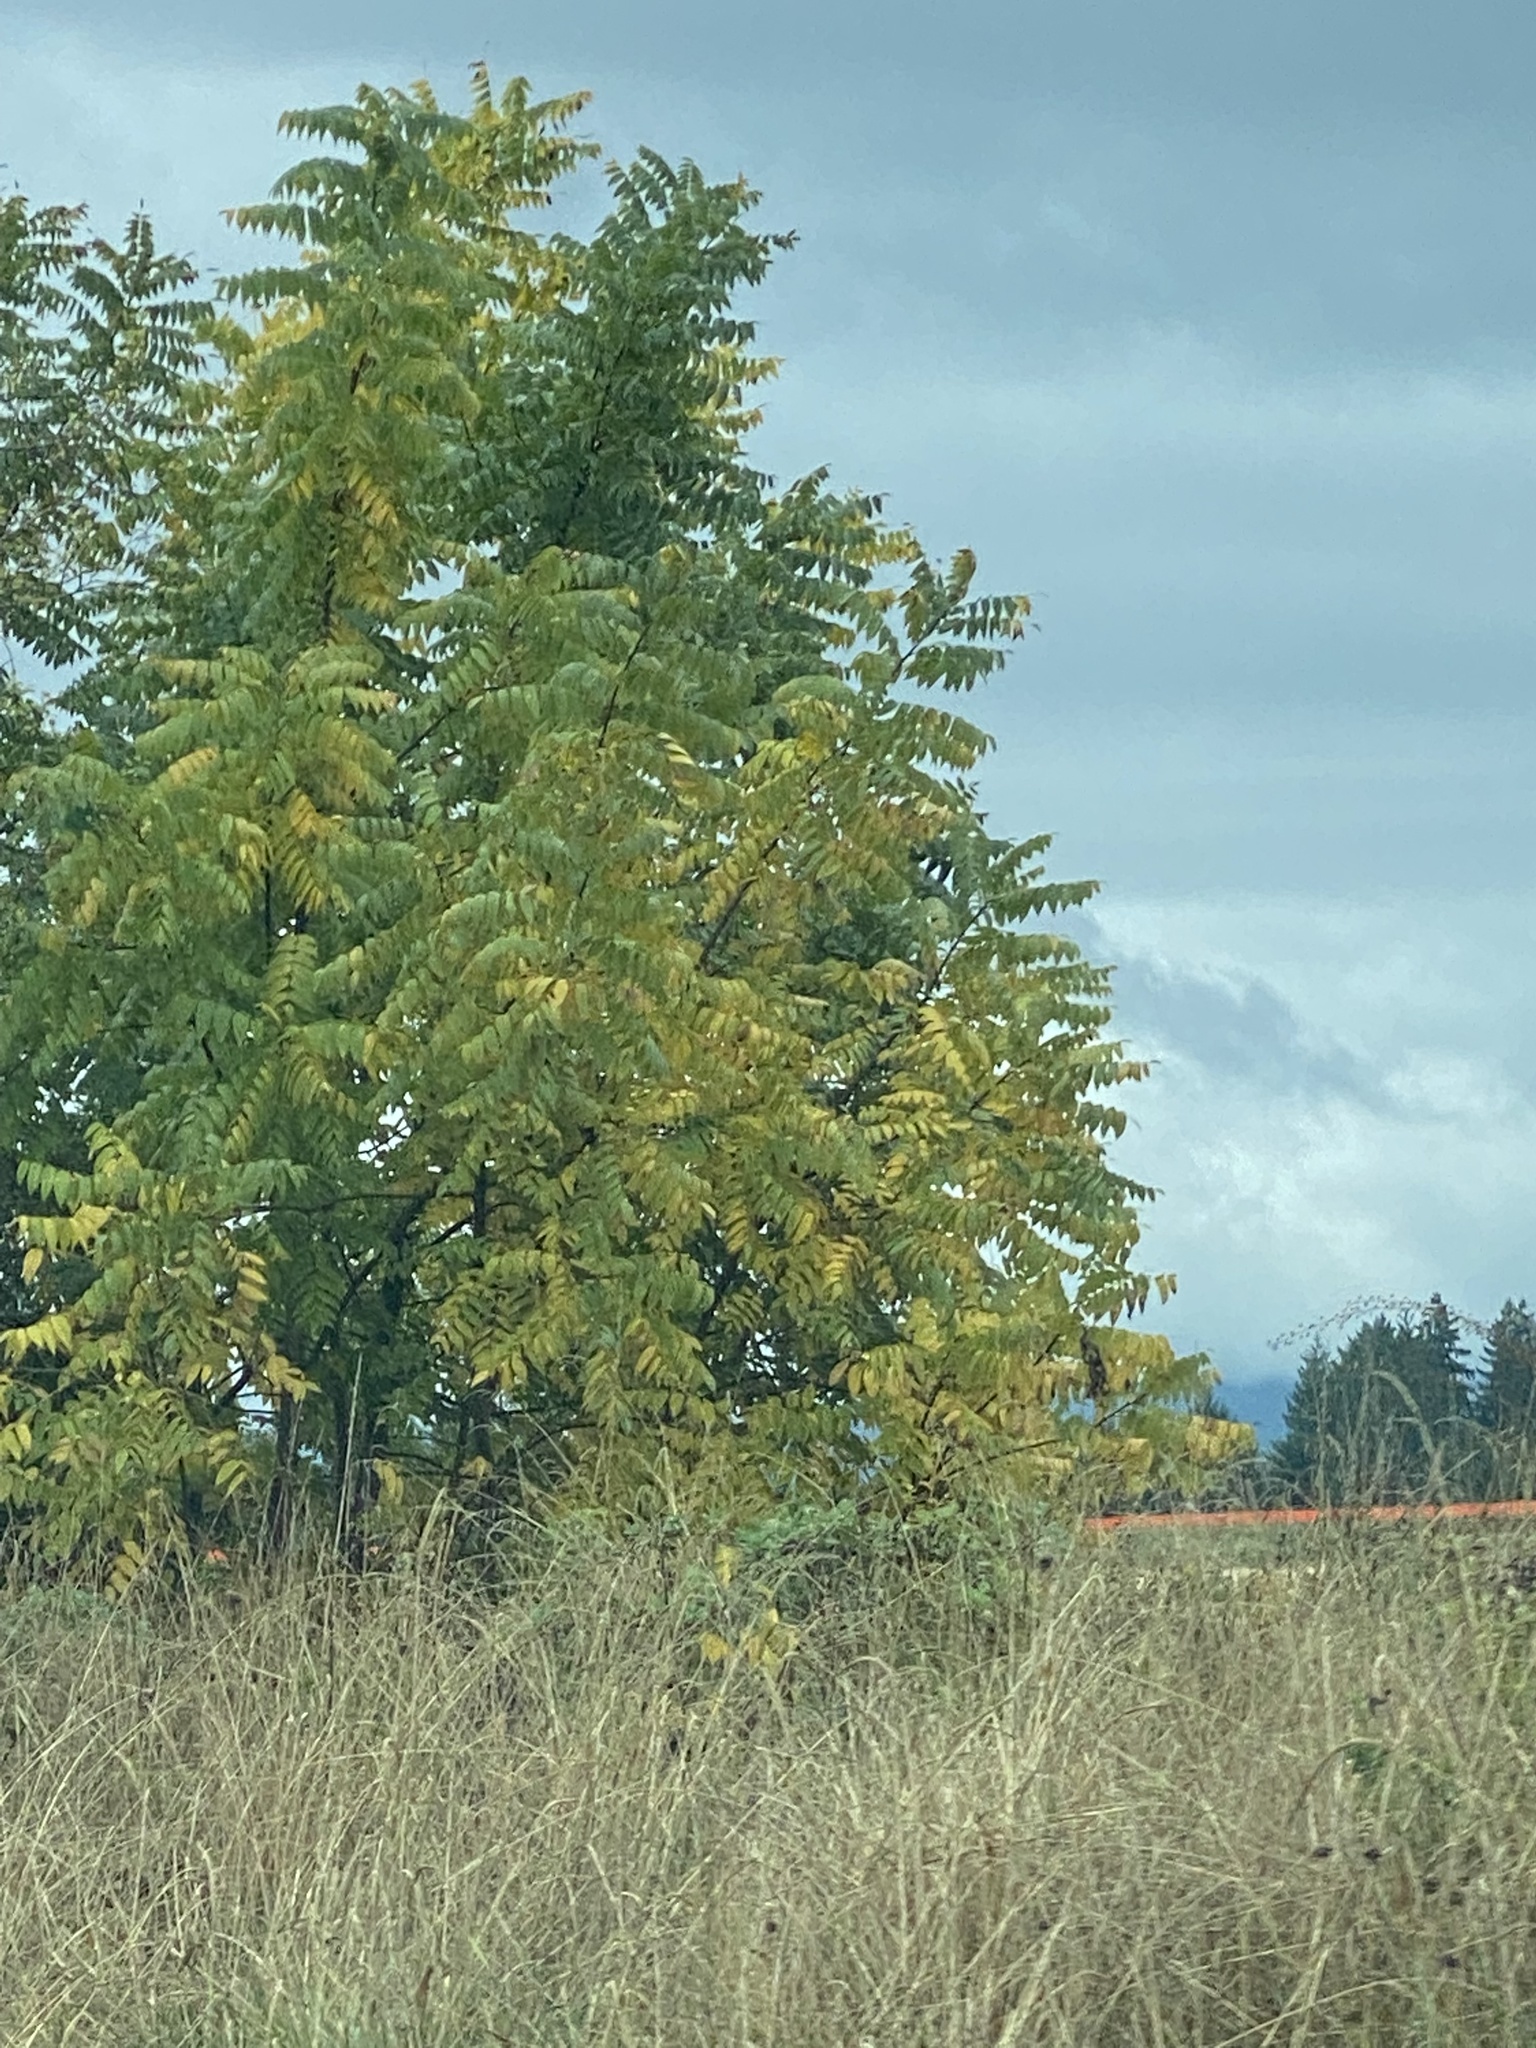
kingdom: Plantae
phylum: Tracheophyta
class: Magnoliopsida
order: Fagales
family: Juglandaceae
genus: Juglans
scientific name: Juglans nigra
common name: Black walnut
